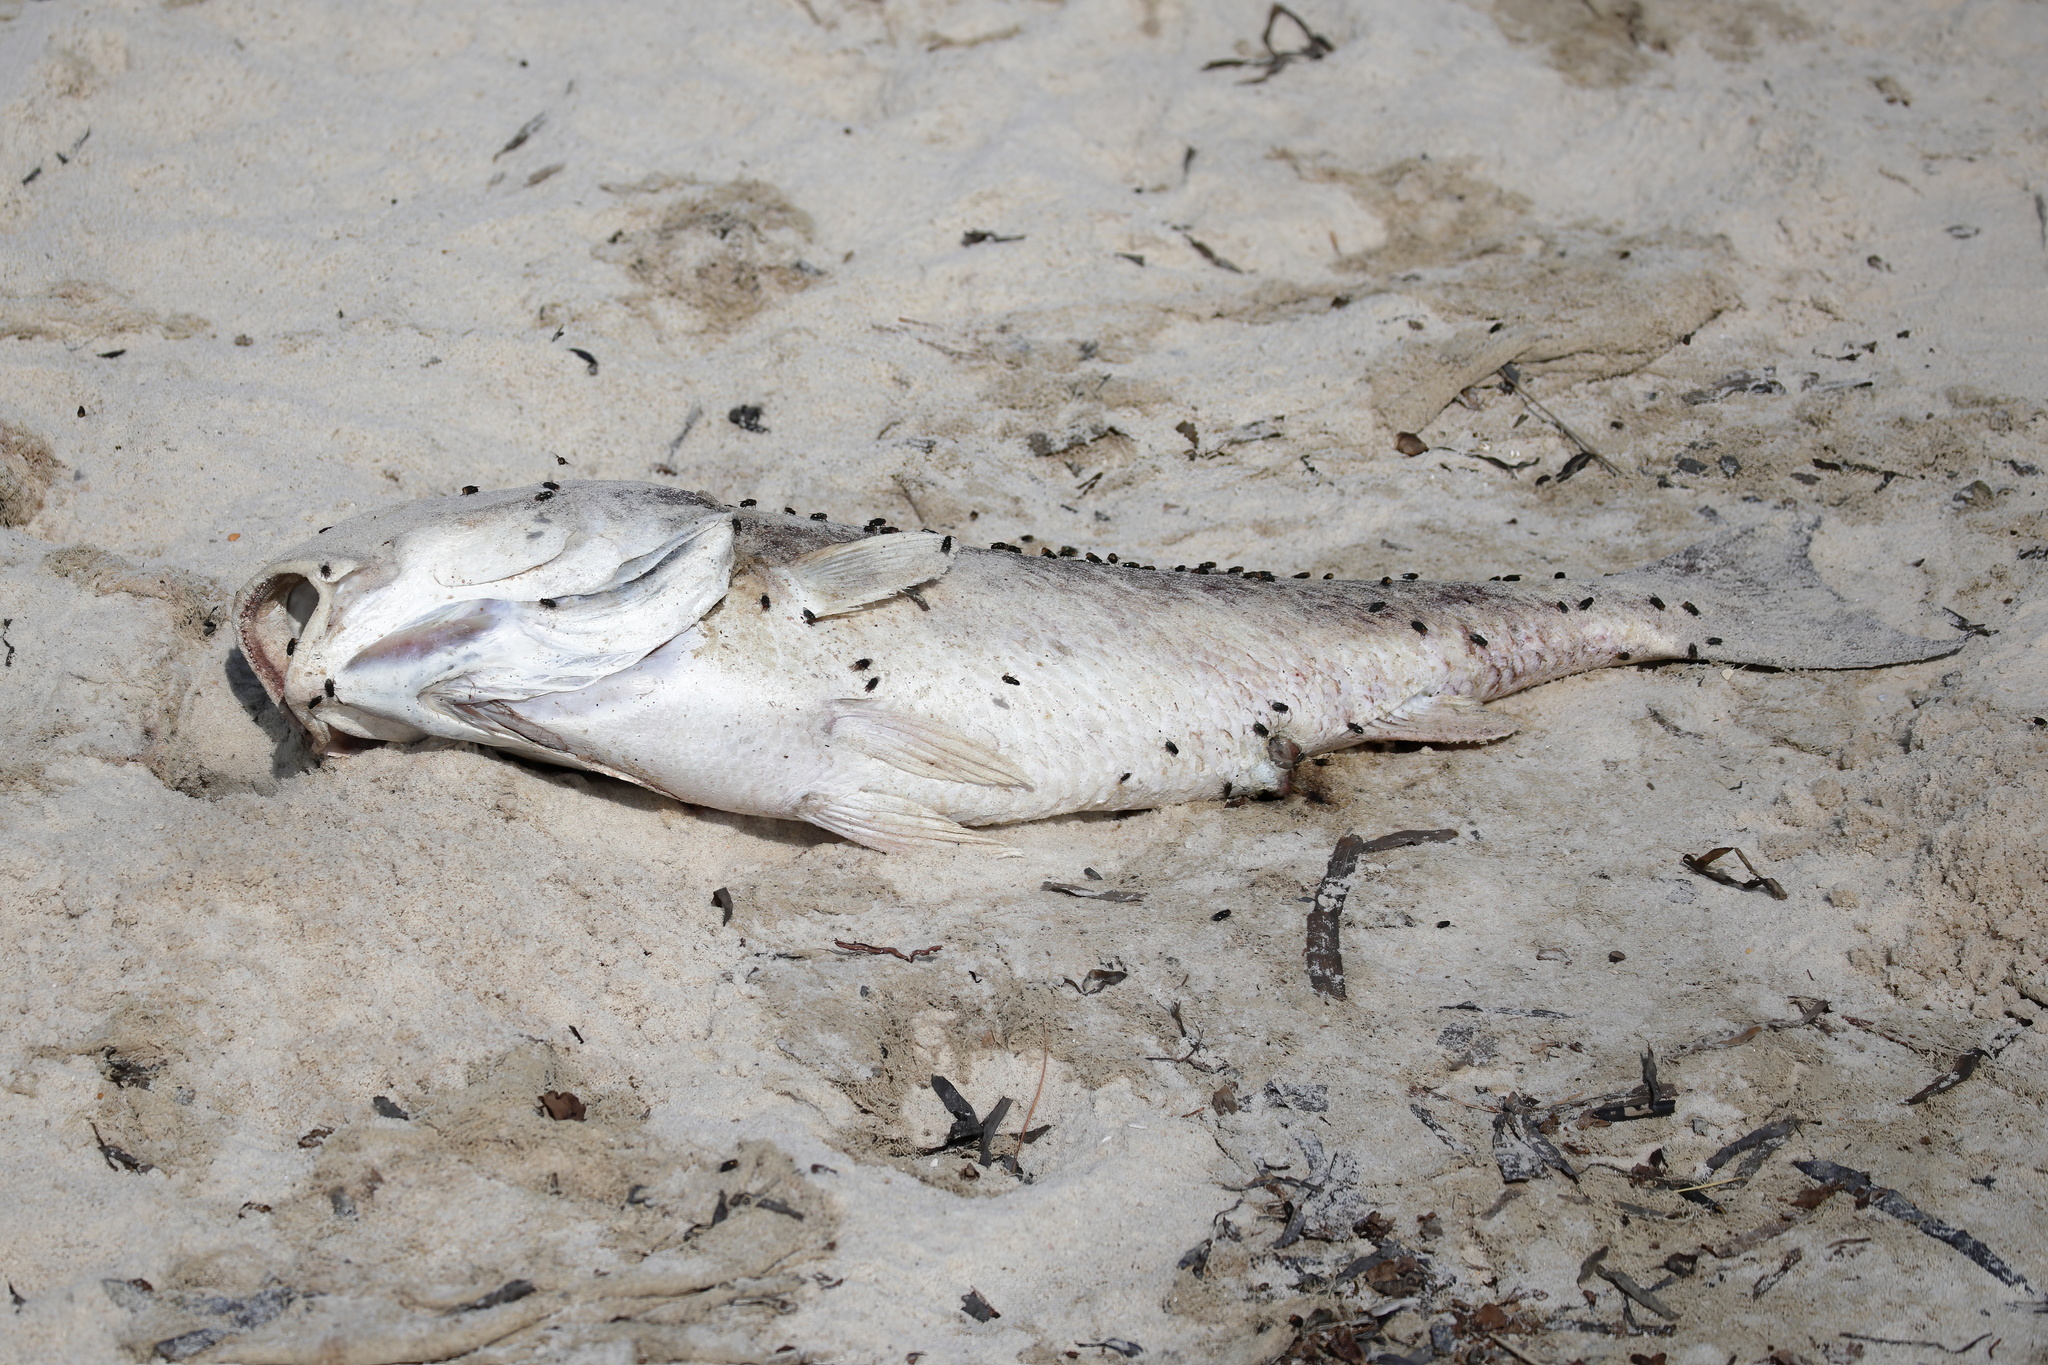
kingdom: Animalia
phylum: Chordata
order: Perciformes
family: Sciaenidae
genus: Pogonias
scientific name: Pogonias cromis
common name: Black drum
